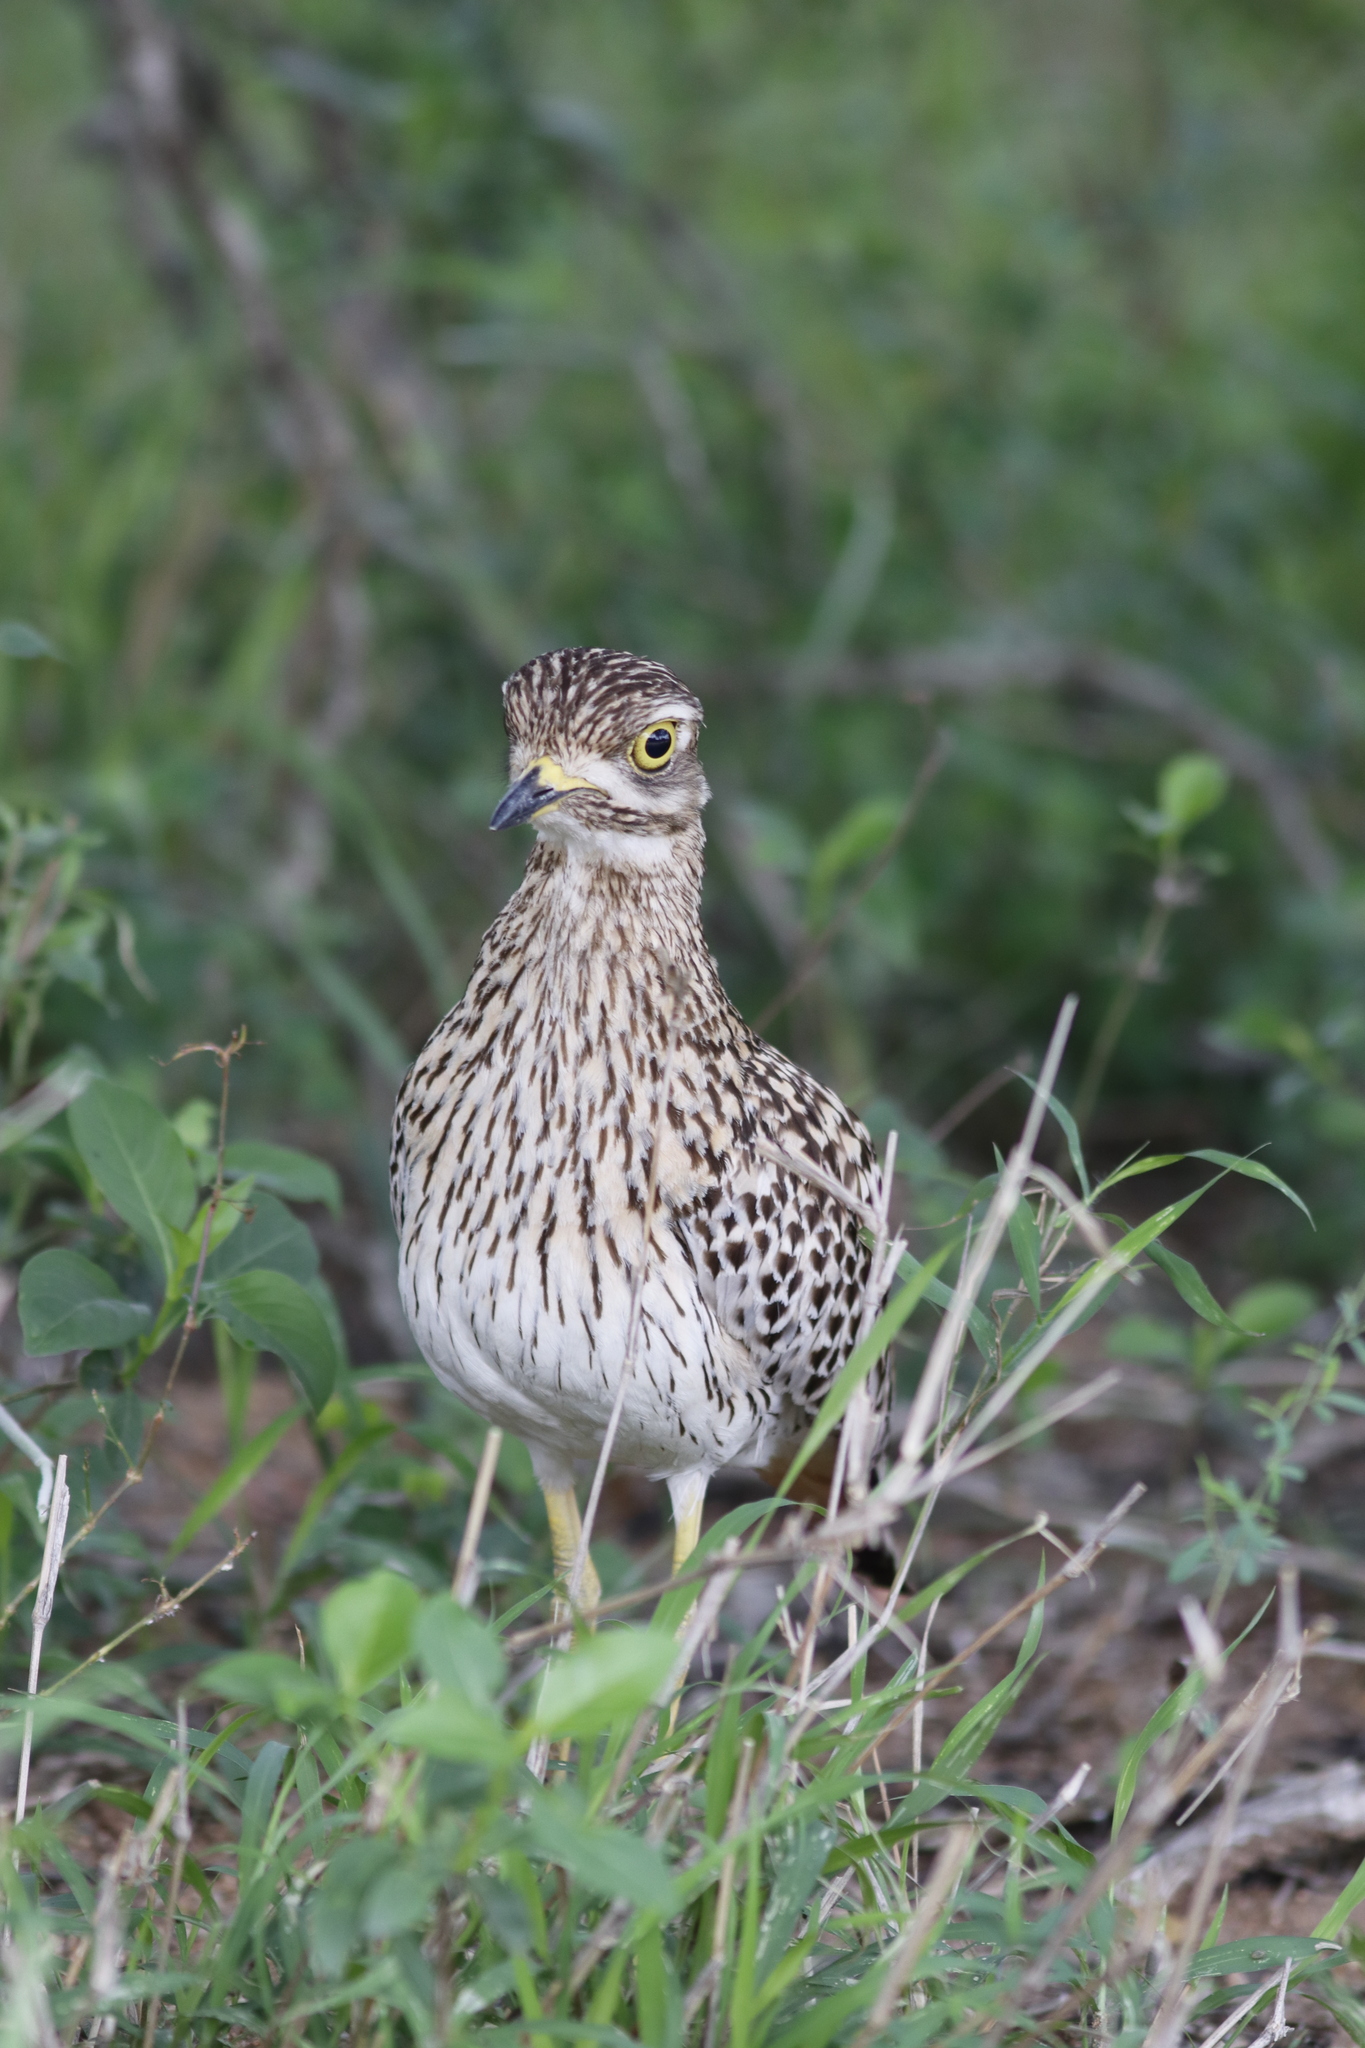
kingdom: Animalia
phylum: Chordata
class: Aves
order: Charadriiformes
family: Burhinidae
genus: Burhinus
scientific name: Burhinus capensis
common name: Spotted thick-knee
